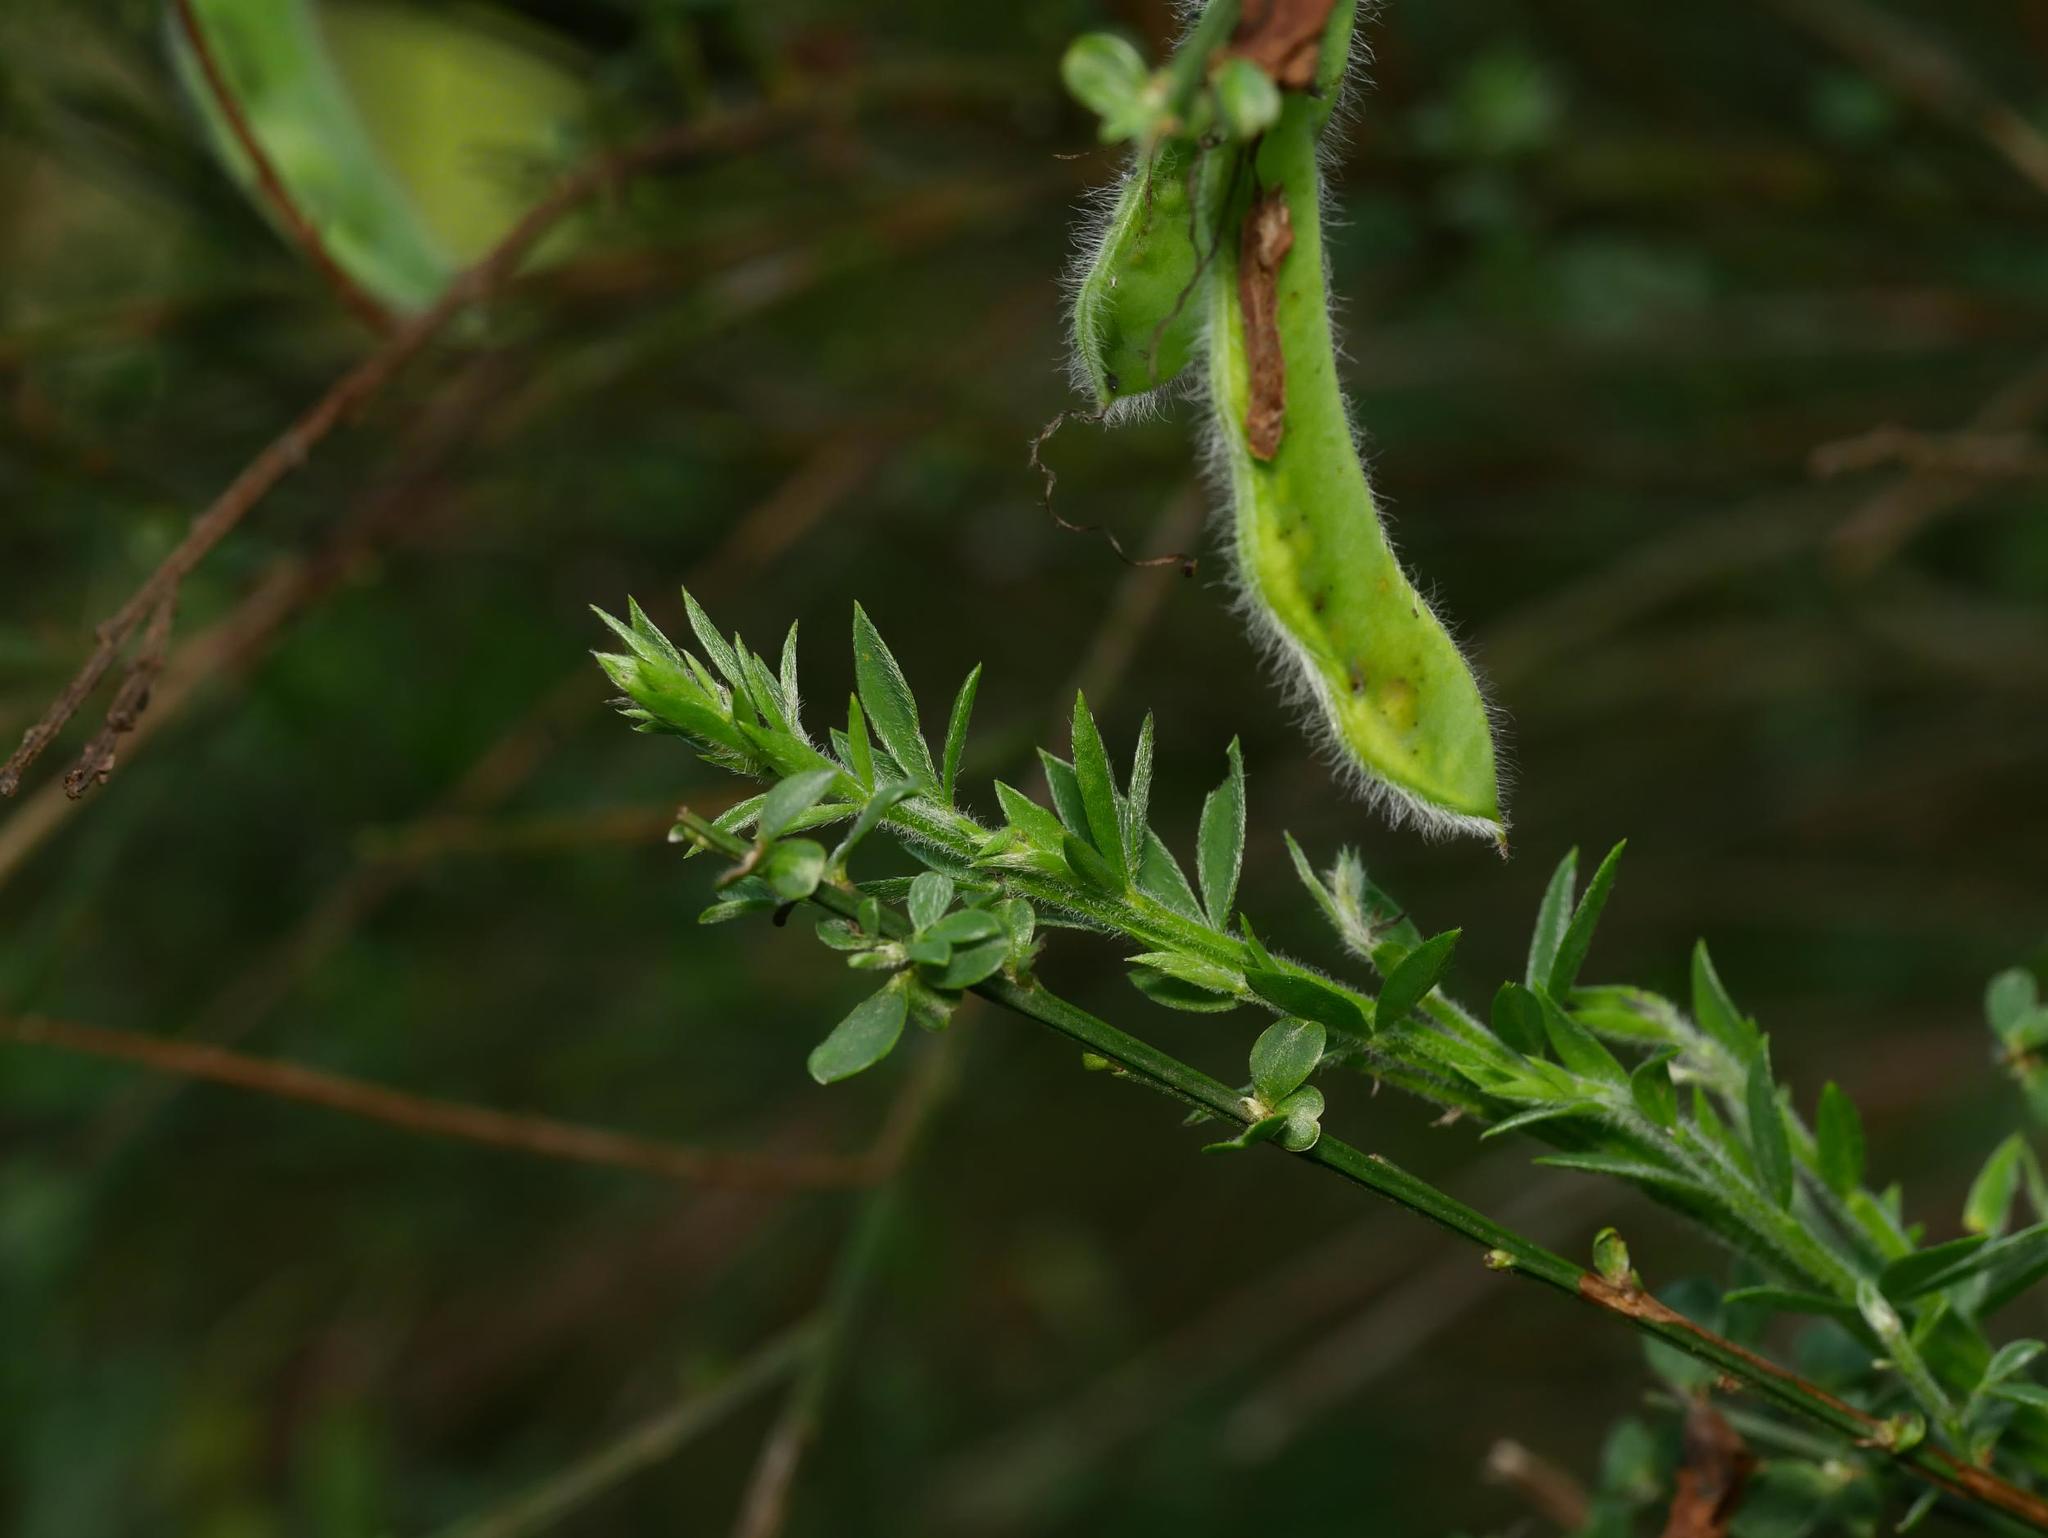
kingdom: Plantae
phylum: Tracheophyta
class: Magnoliopsida
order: Fabales
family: Fabaceae
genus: Cytisus
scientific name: Cytisus scoparius
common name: Scotch broom
